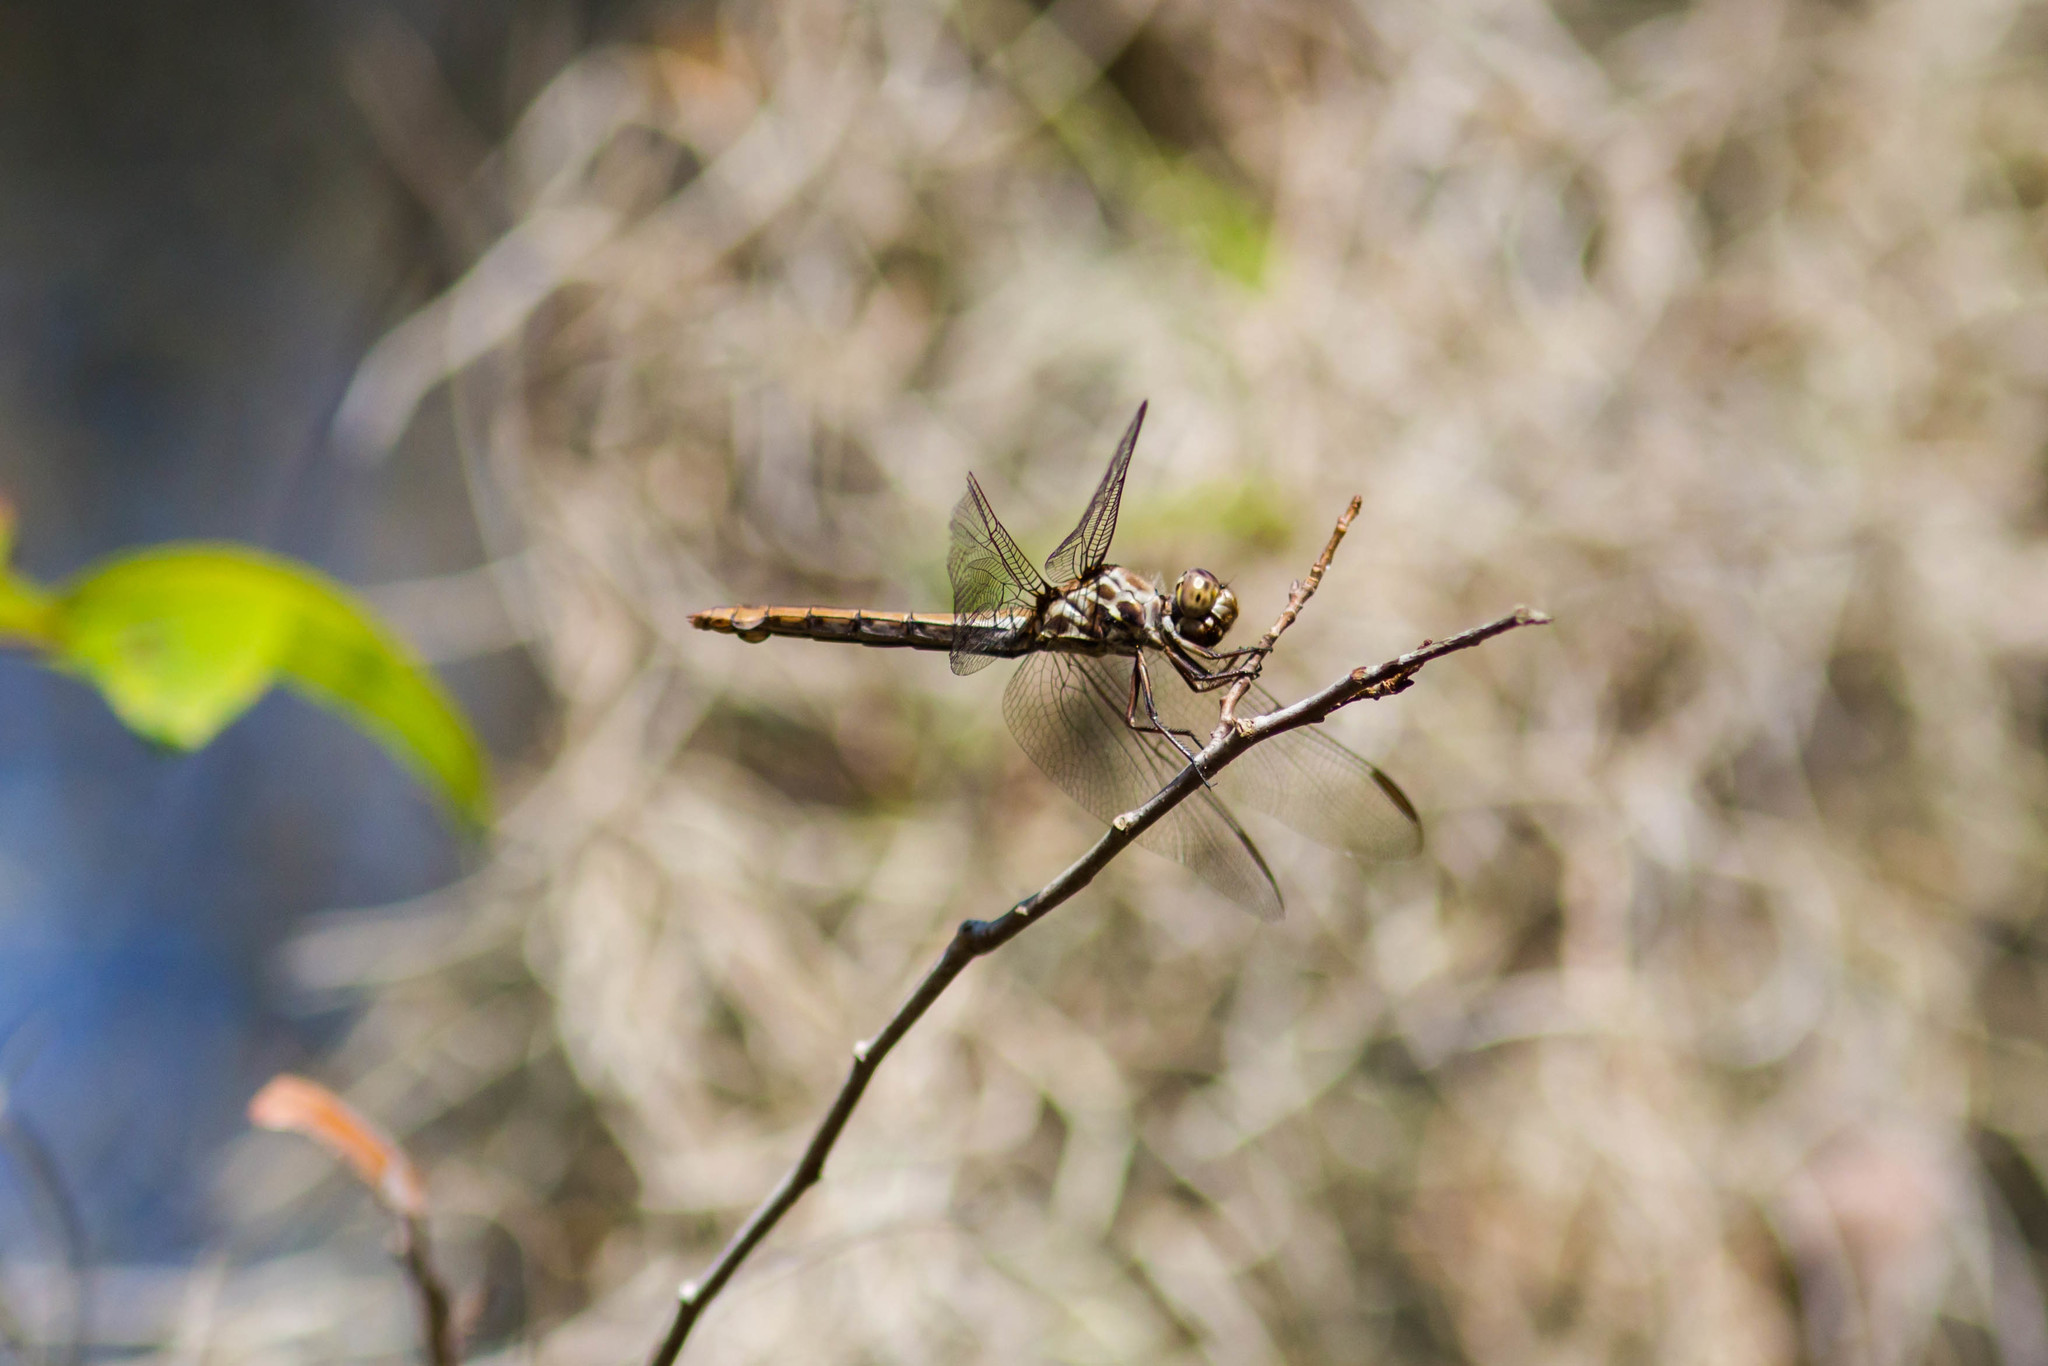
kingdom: Animalia
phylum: Arthropoda
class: Insecta
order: Odonata
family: Libellulidae
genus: Orthemis
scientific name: Orthemis ferruginea
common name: Roseate skimmer
